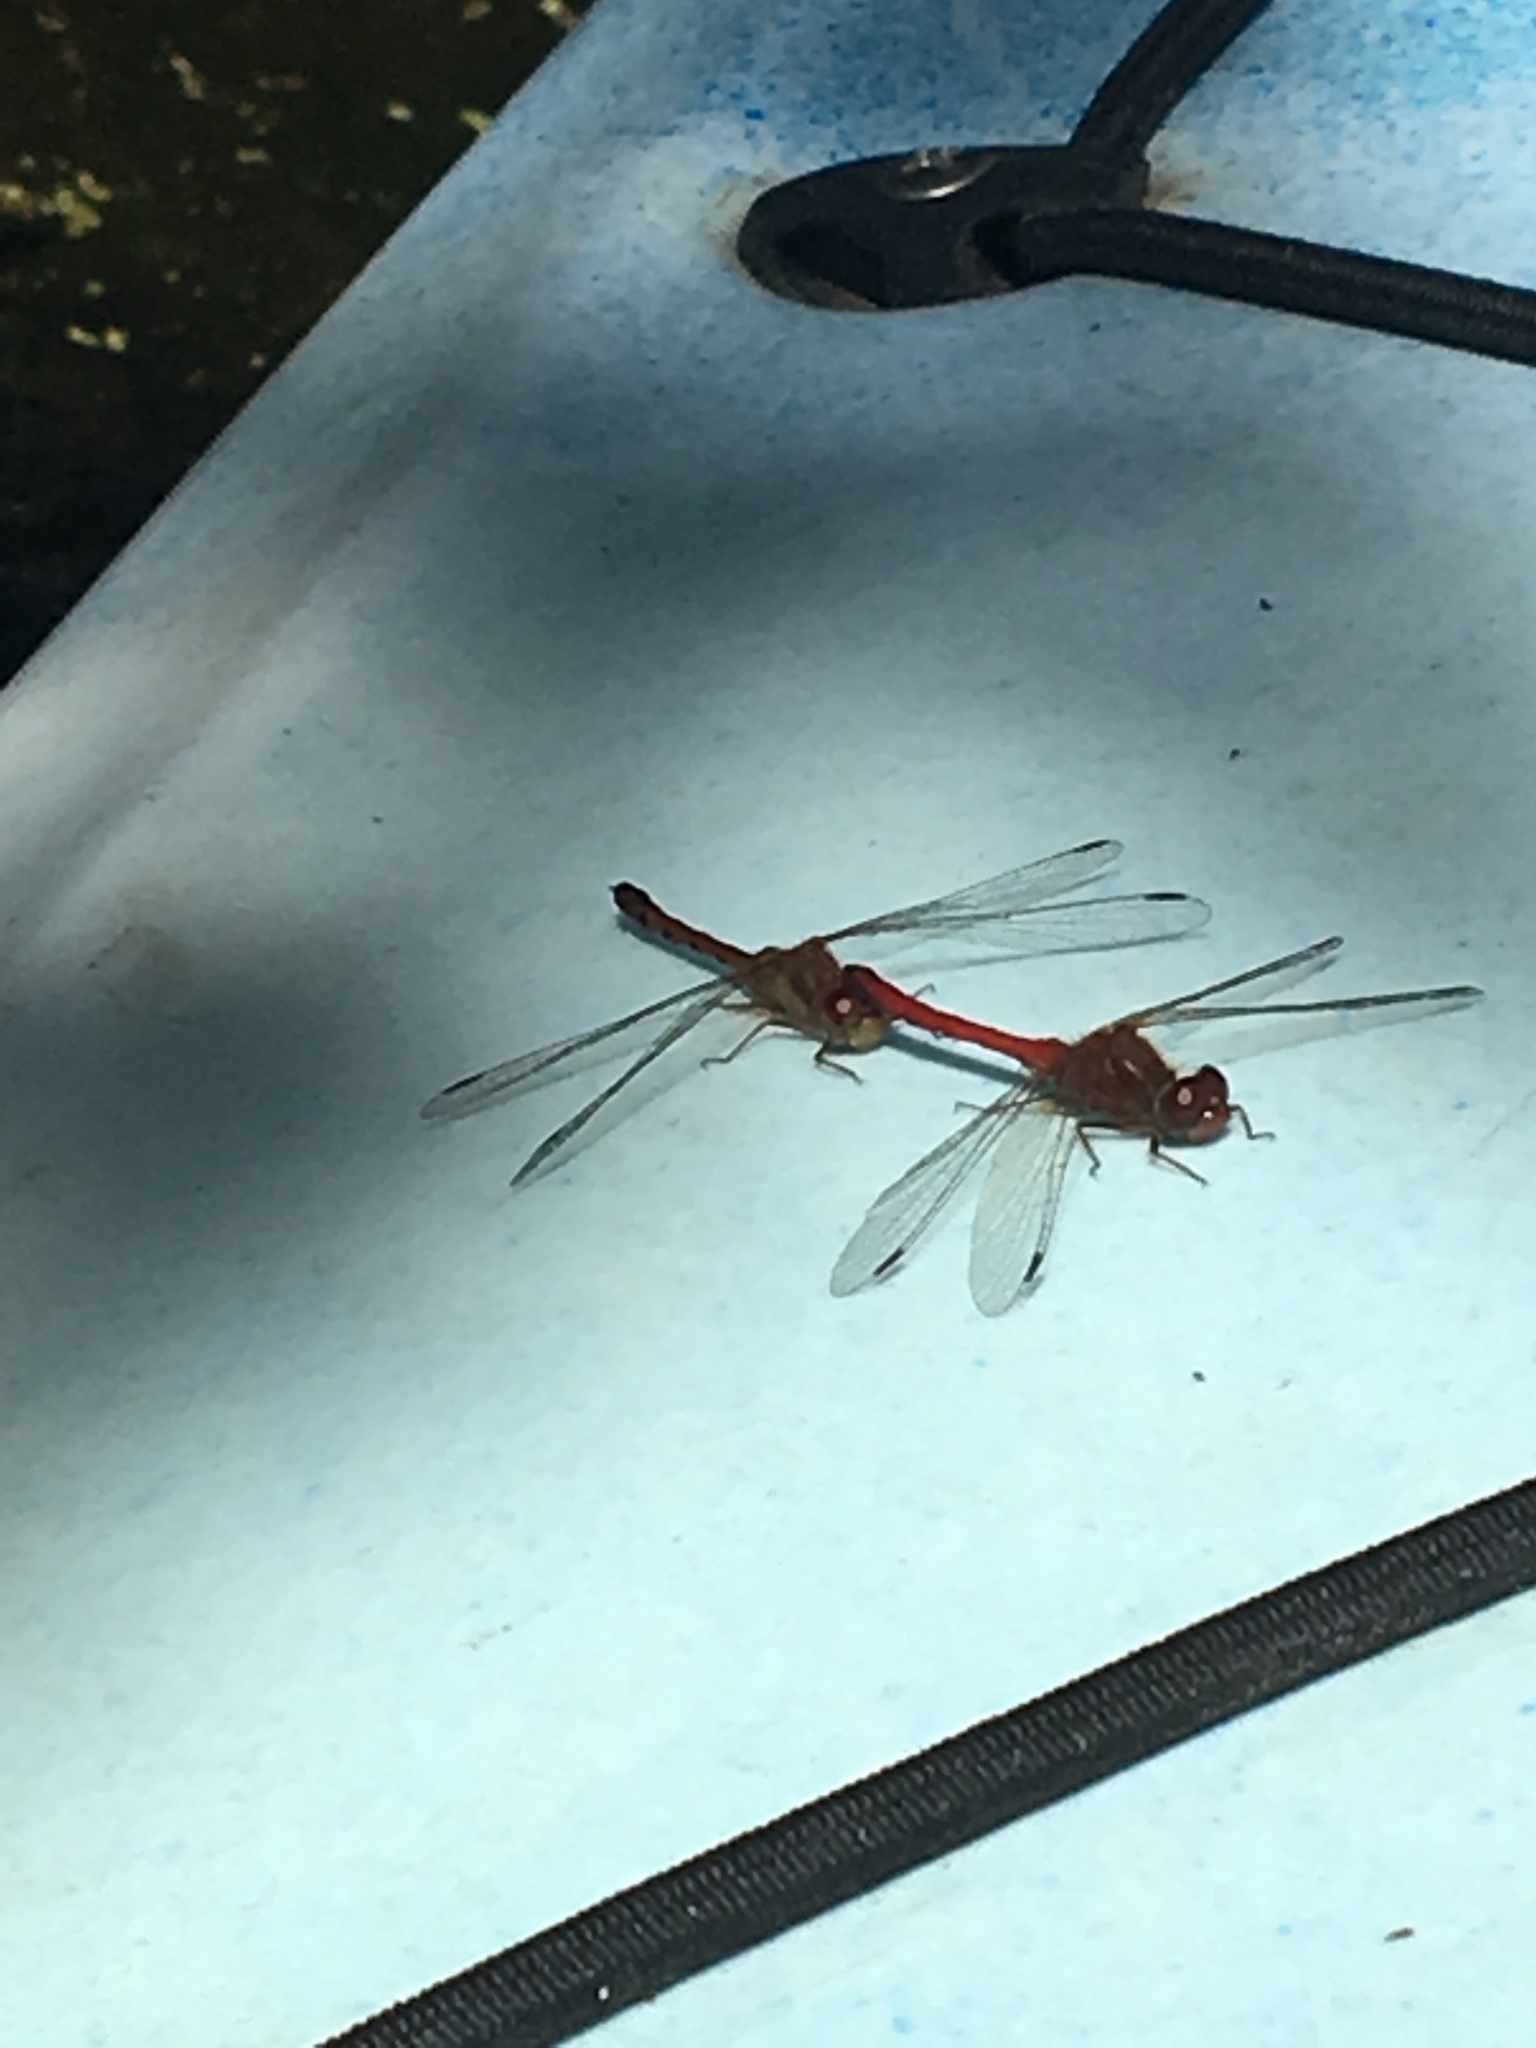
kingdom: Animalia
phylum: Arthropoda
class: Insecta
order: Odonata
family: Libellulidae
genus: Sympetrum
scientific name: Sympetrum vicinum
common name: Autumn meadowhawk
